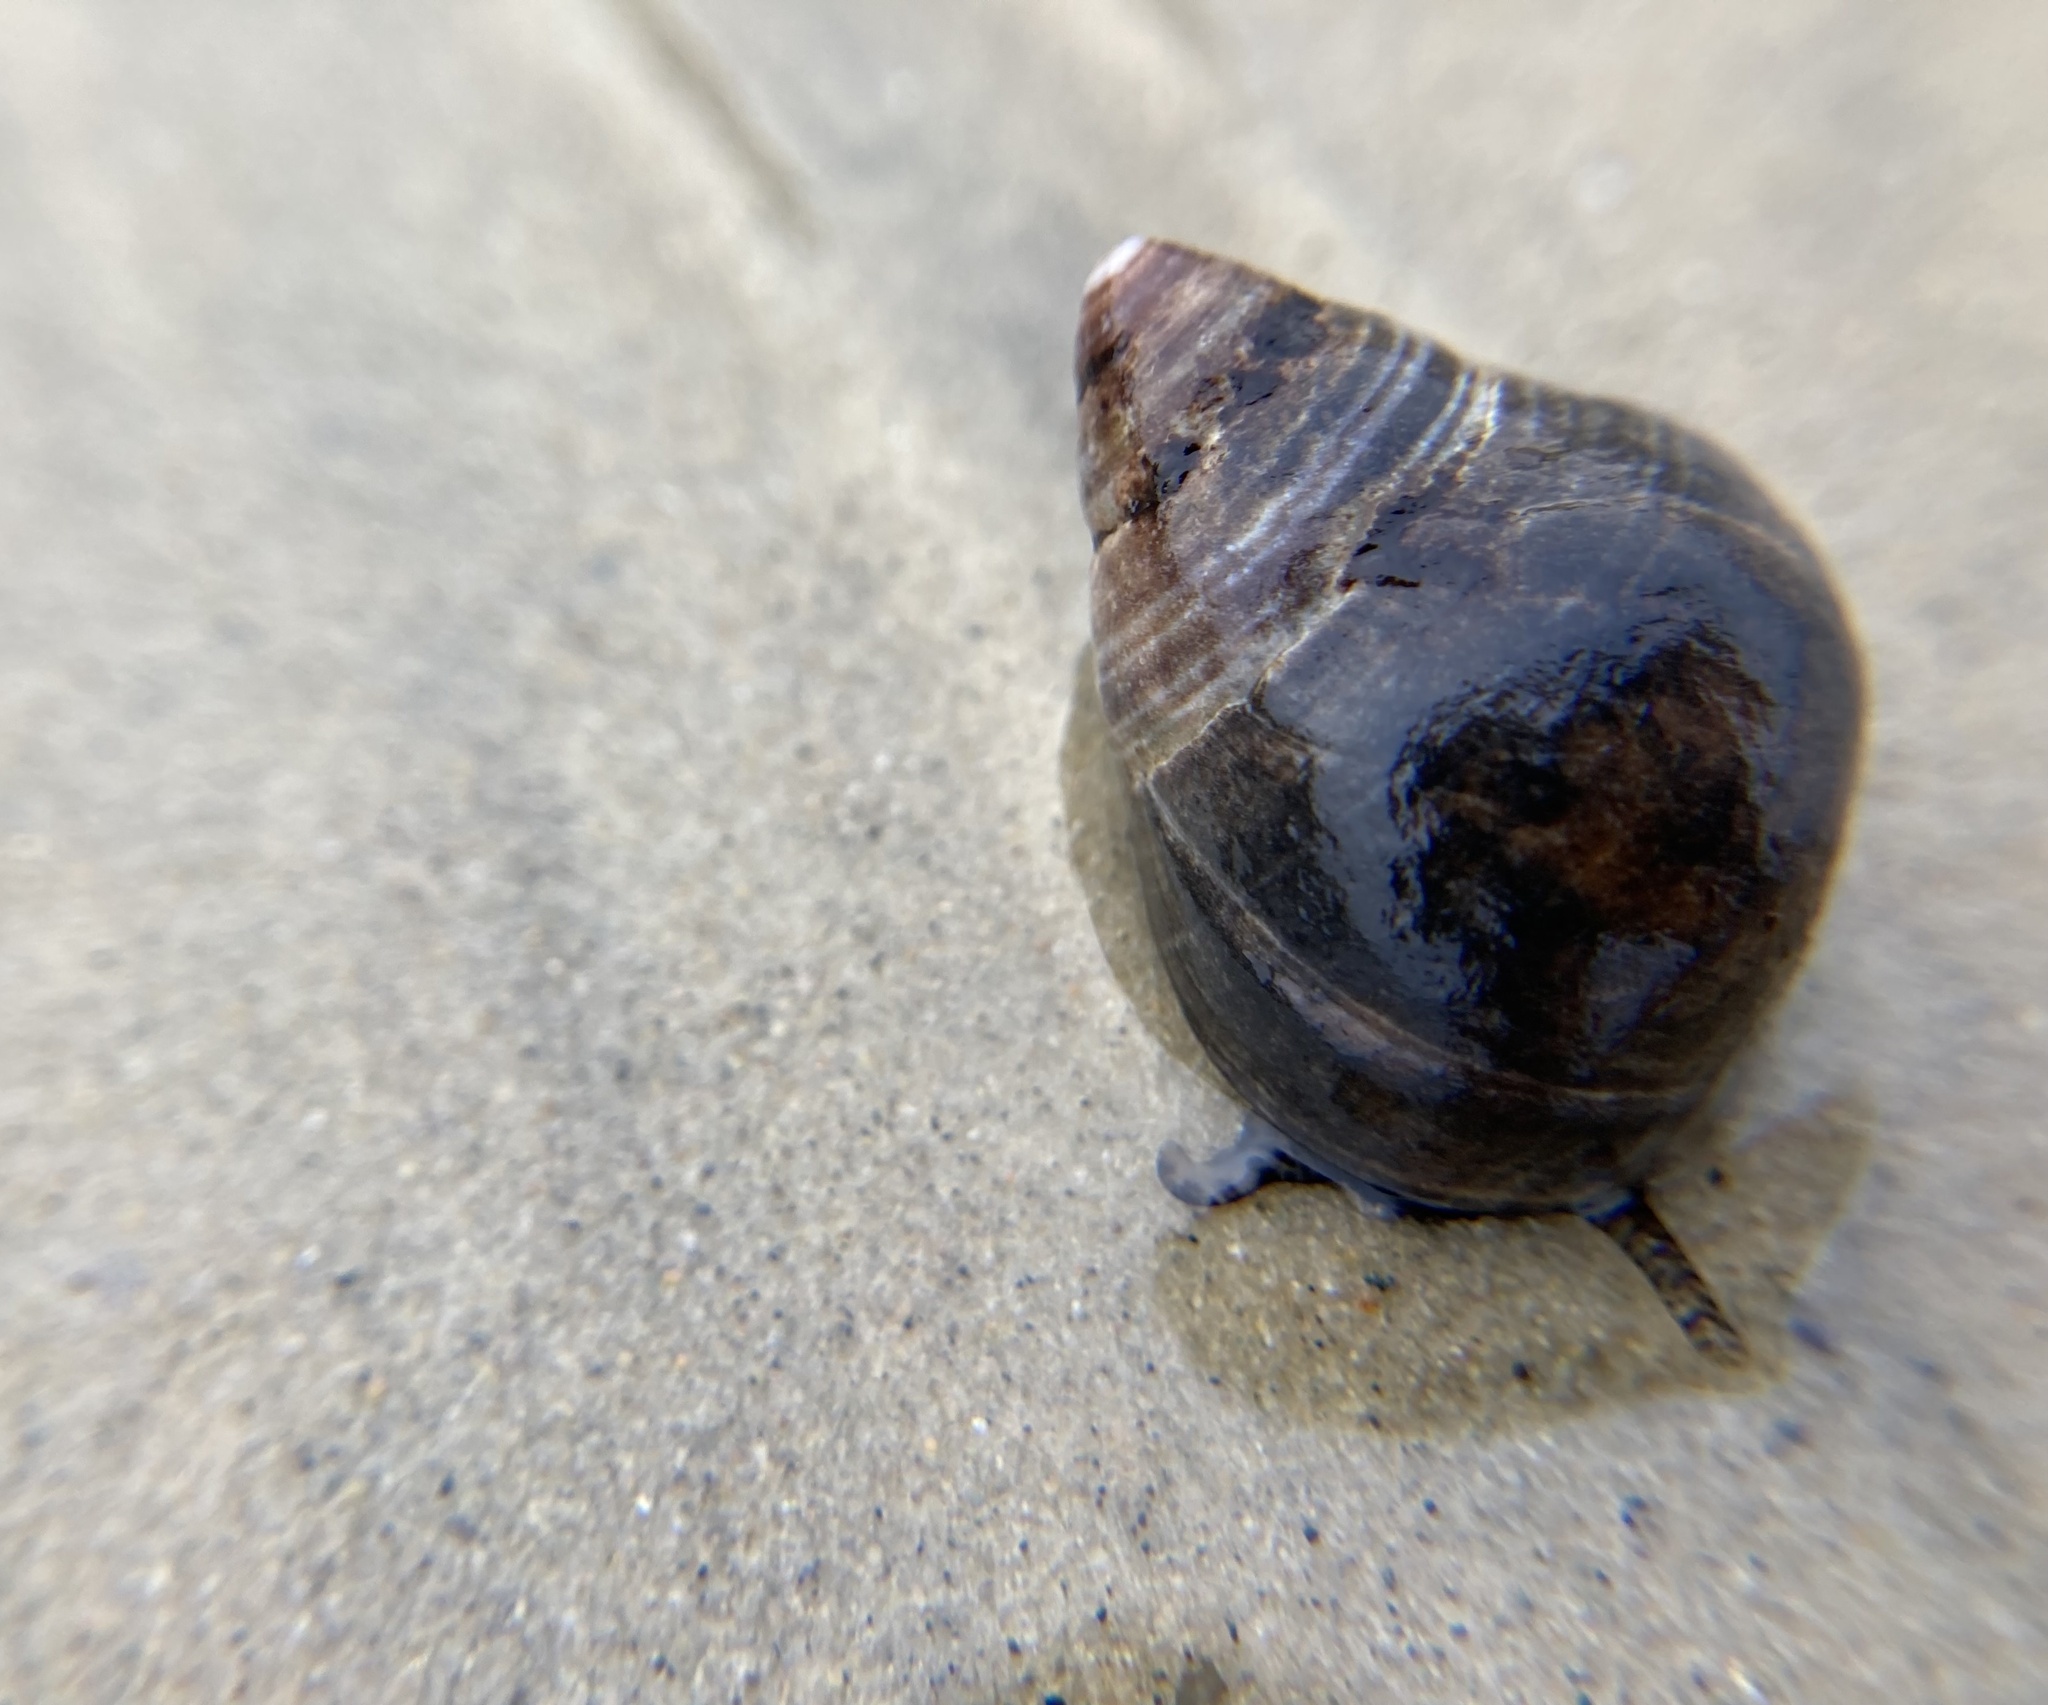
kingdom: Animalia
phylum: Mollusca
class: Gastropoda
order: Littorinimorpha
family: Littorinidae
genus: Littorina
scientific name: Littorina littorea
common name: Common periwinkle
